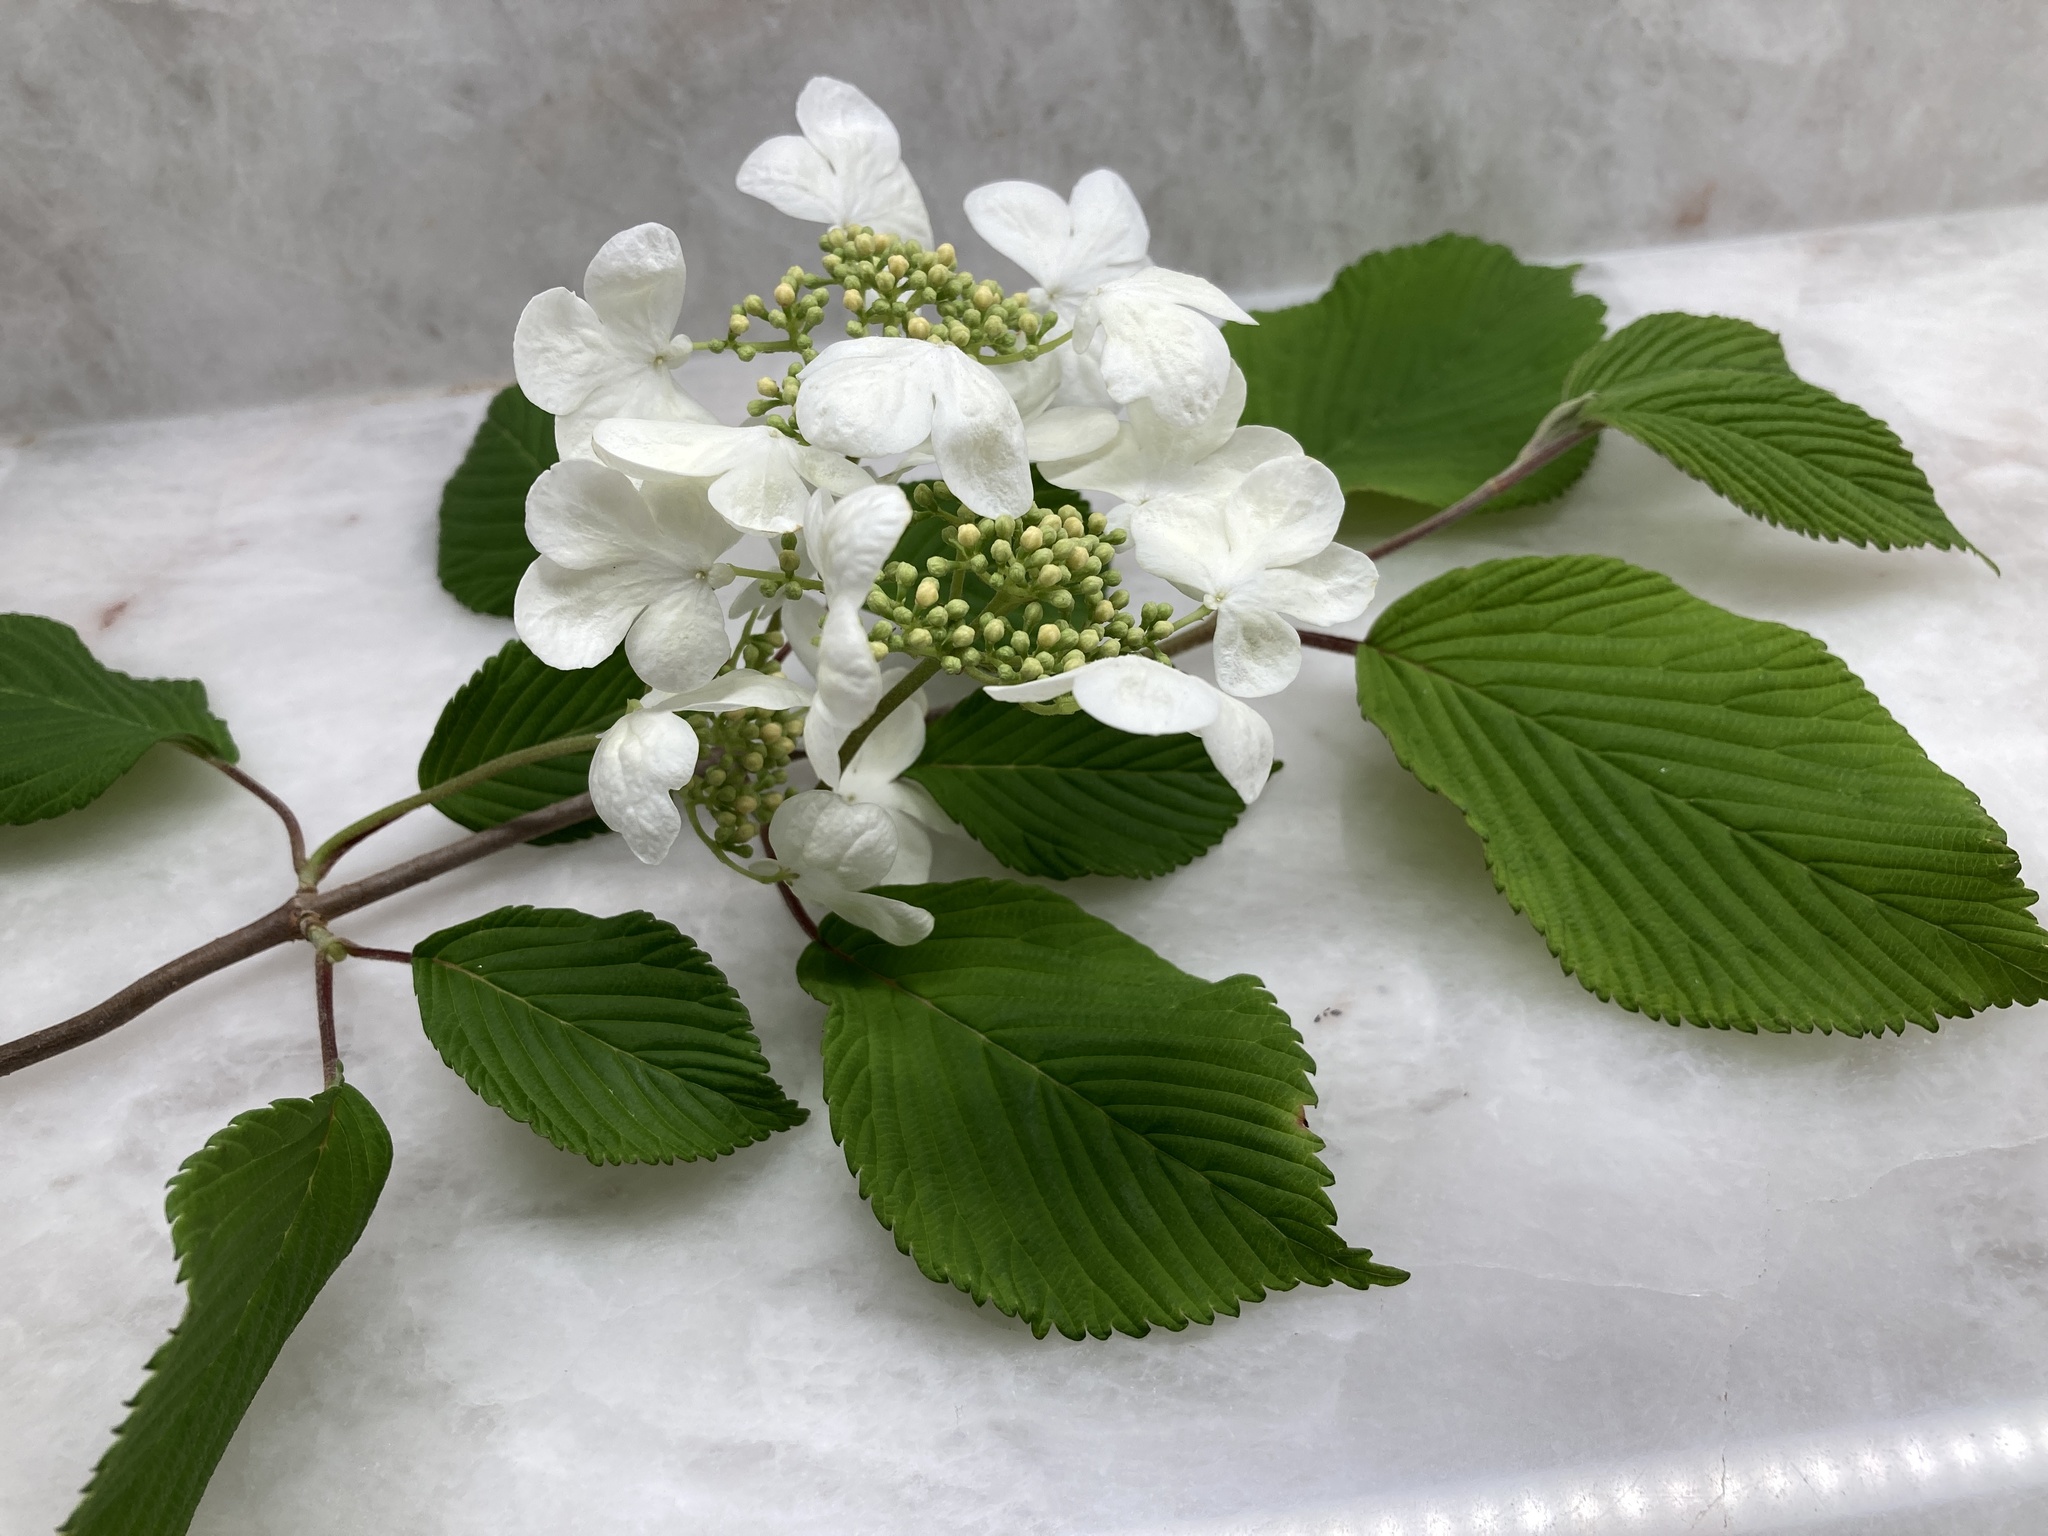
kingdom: Plantae
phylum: Tracheophyta
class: Magnoliopsida
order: Dipsacales
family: Viburnaceae
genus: Viburnum
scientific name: Viburnum plicatum
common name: Japanese snowball
